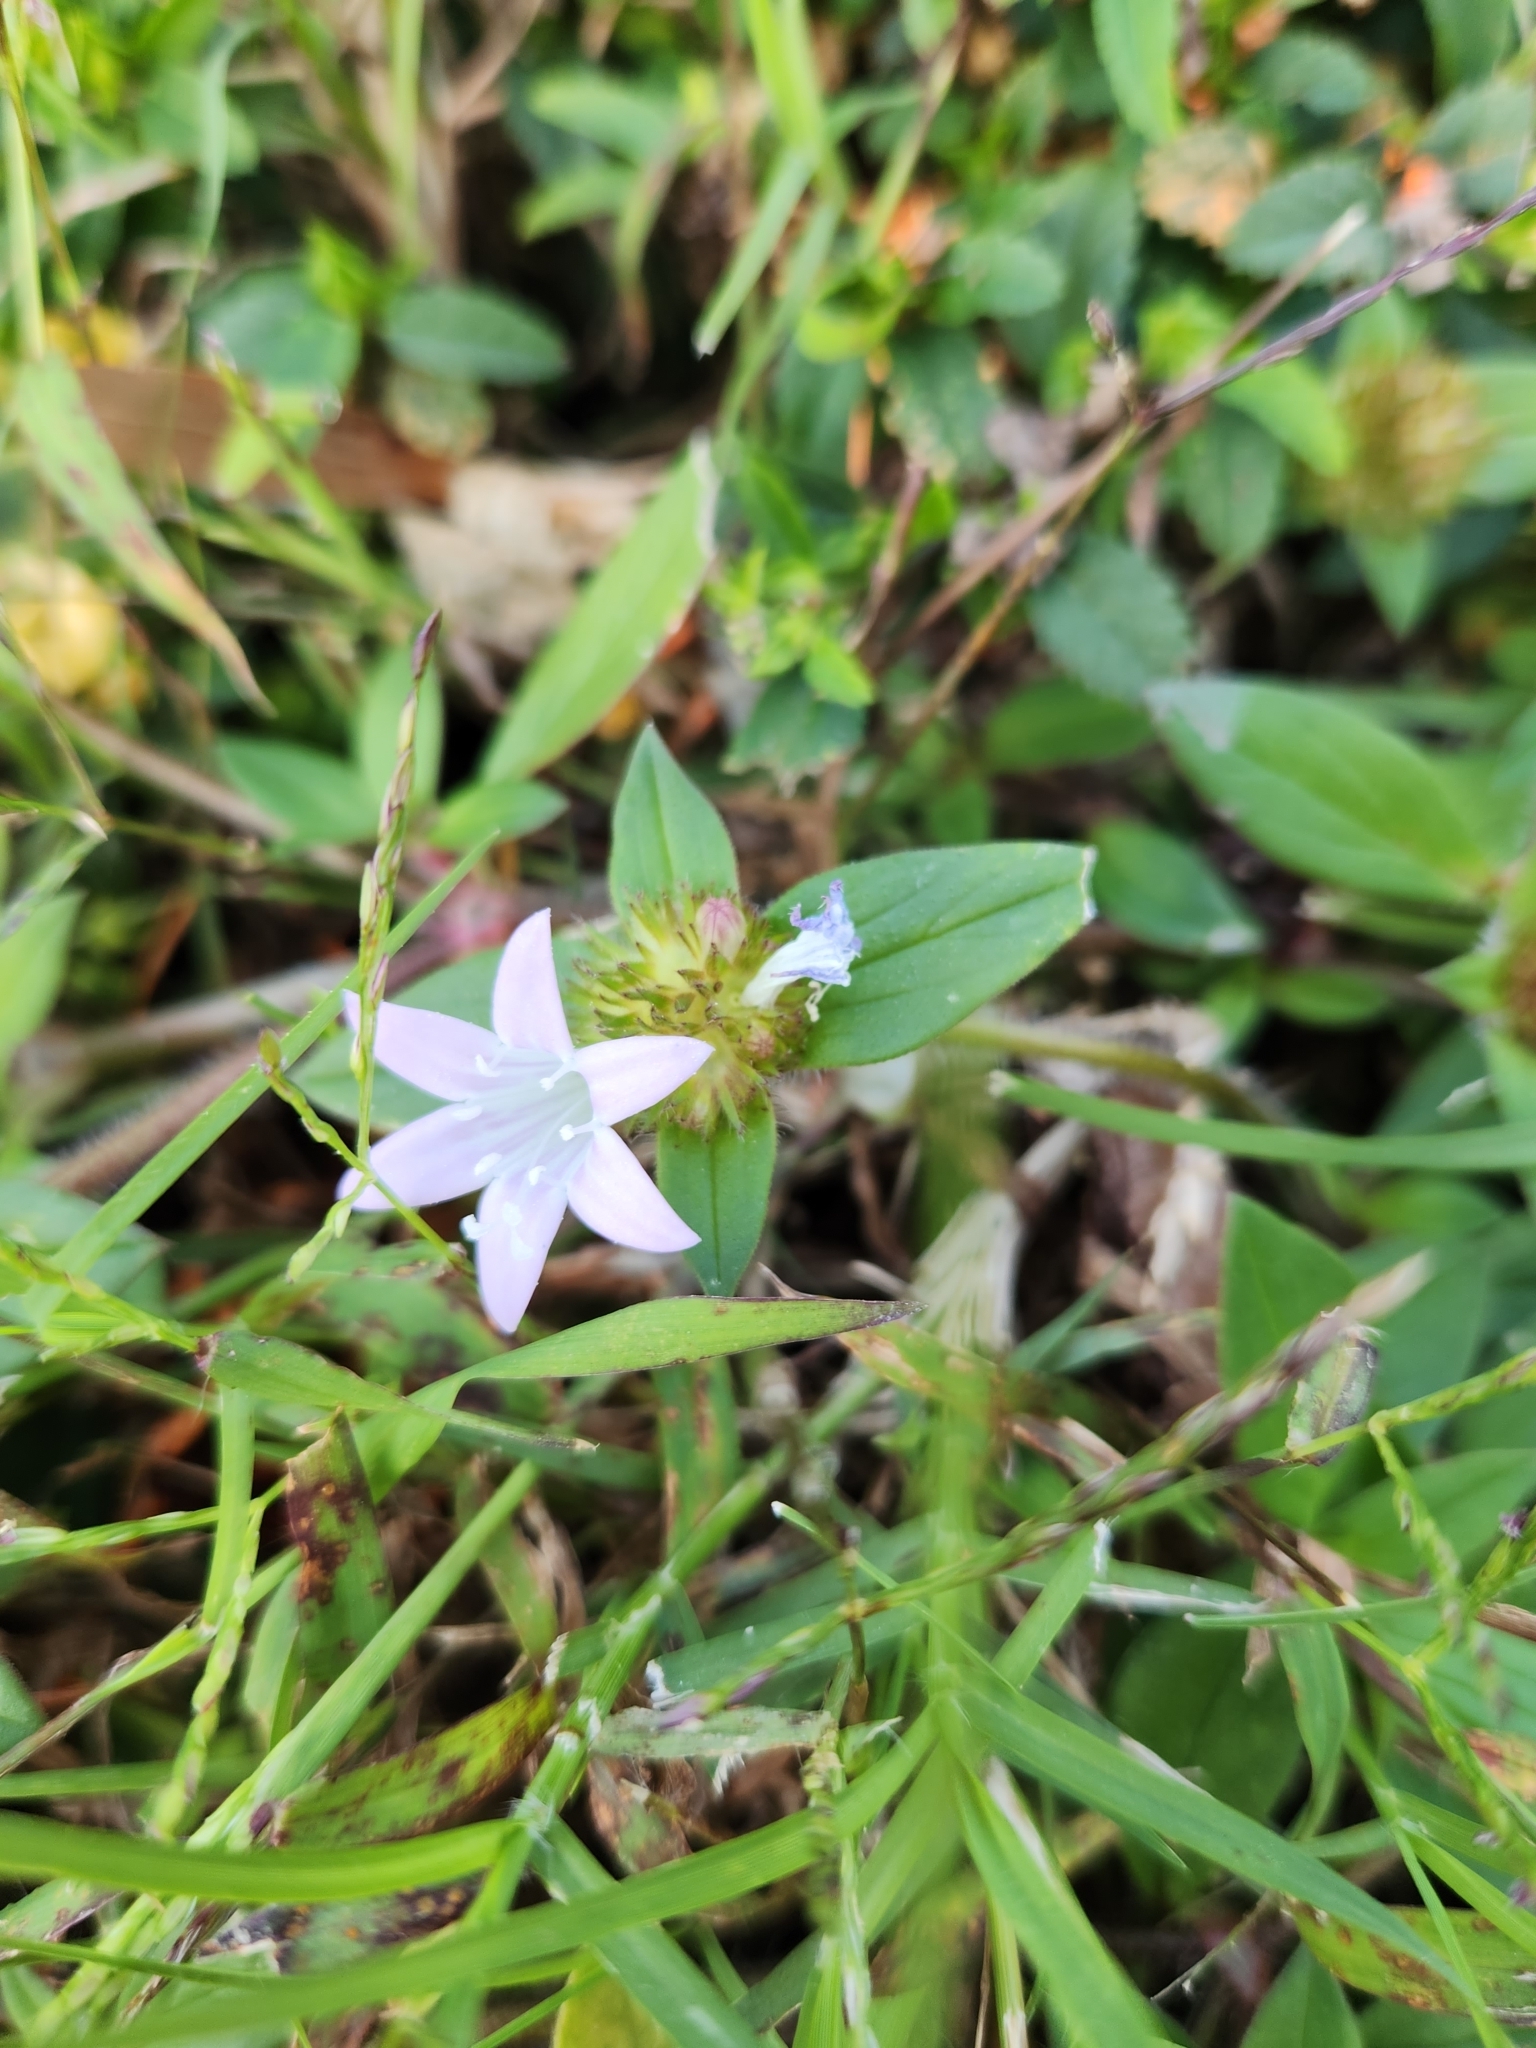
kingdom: Plantae
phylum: Tracheophyta
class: Magnoliopsida
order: Gentianales
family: Rubiaceae
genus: Richardia
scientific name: Richardia grandiflora
